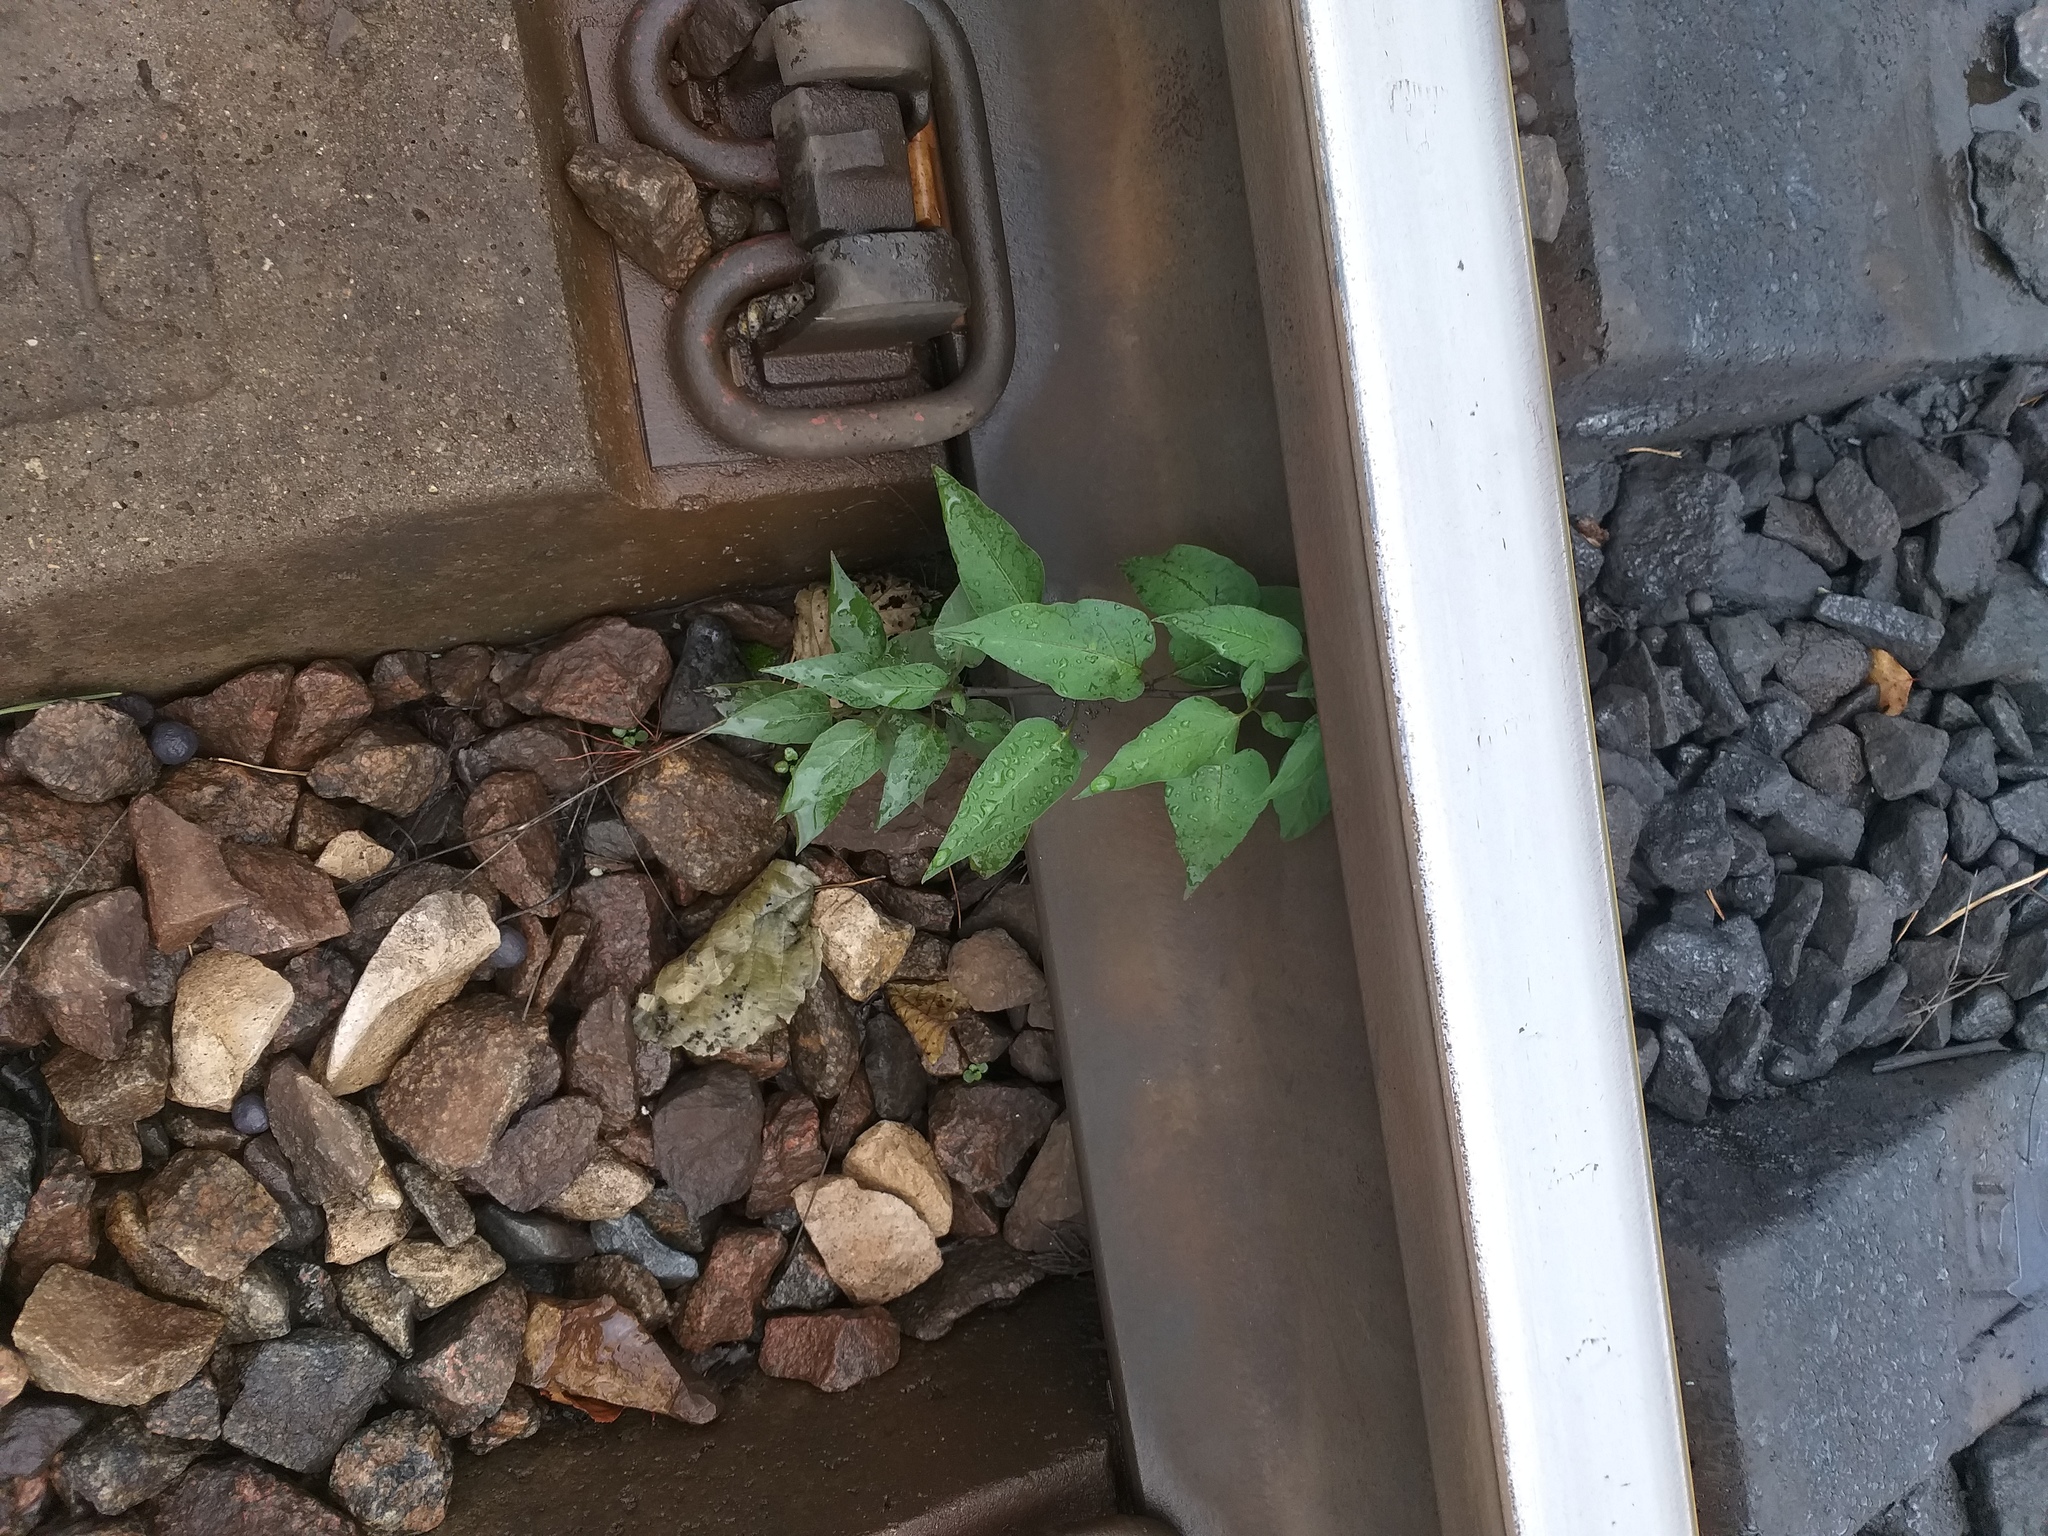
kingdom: Plantae
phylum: Tracheophyta
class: Magnoliopsida
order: Solanales
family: Solanaceae
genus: Solanum
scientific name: Solanum dulcamara
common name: Climbing nightshade
